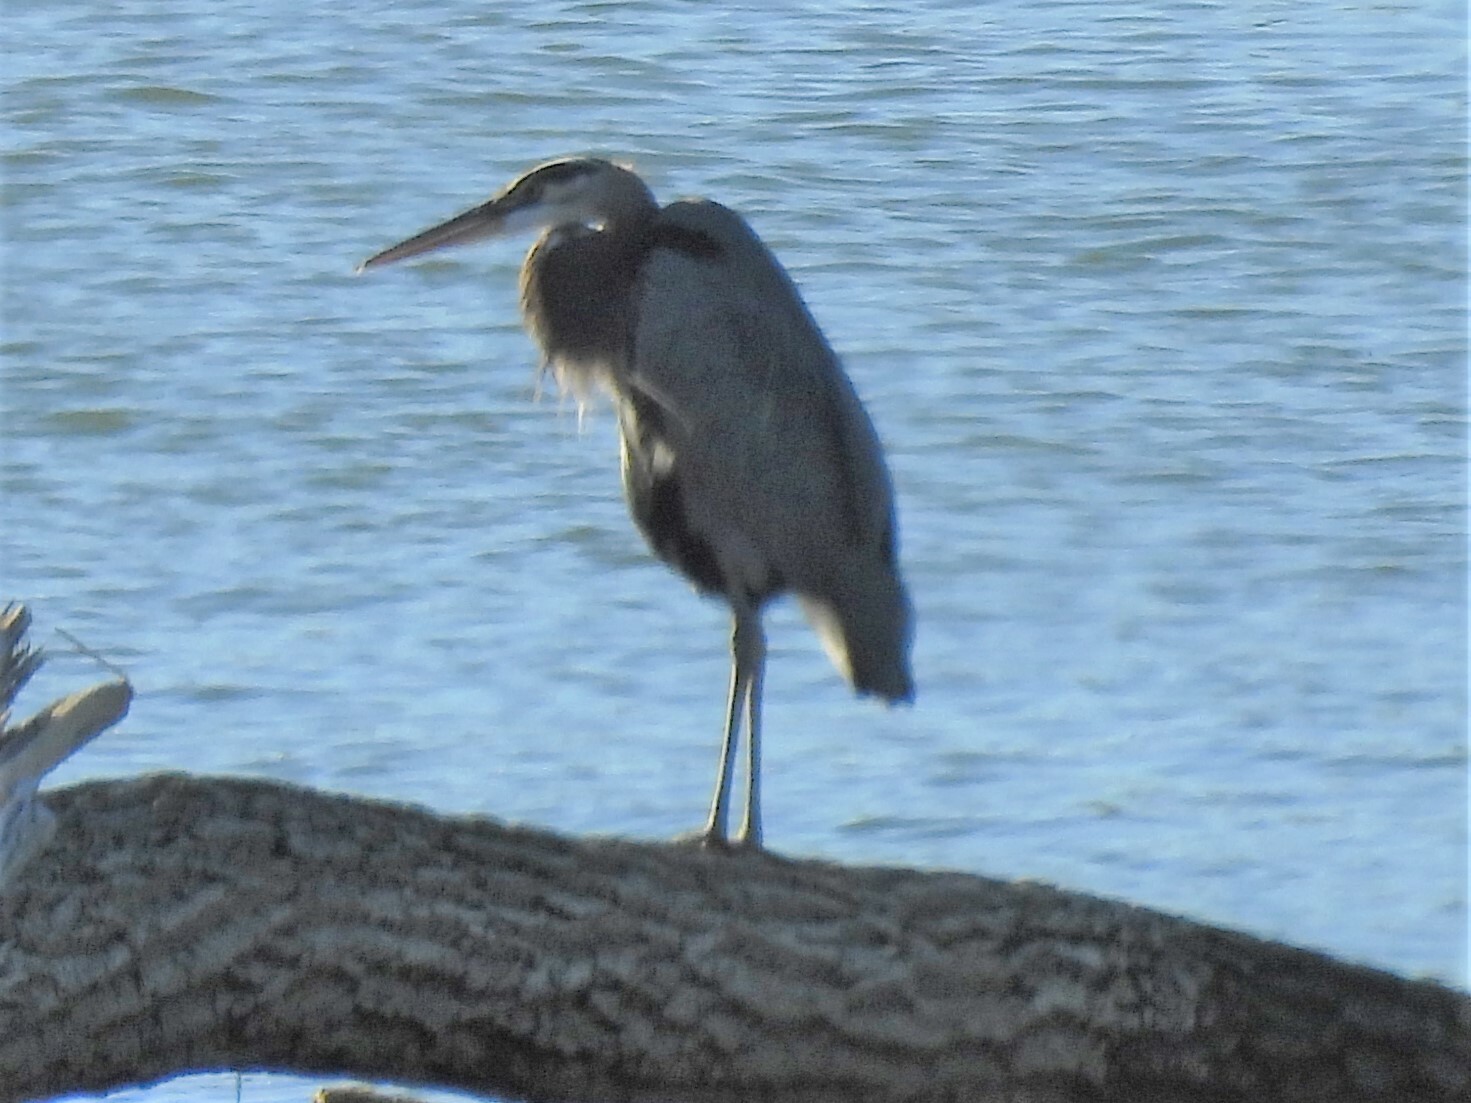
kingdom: Animalia
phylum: Chordata
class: Aves
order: Pelecaniformes
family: Ardeidae
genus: Ardea
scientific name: Ardea herodias
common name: Great blue heron
